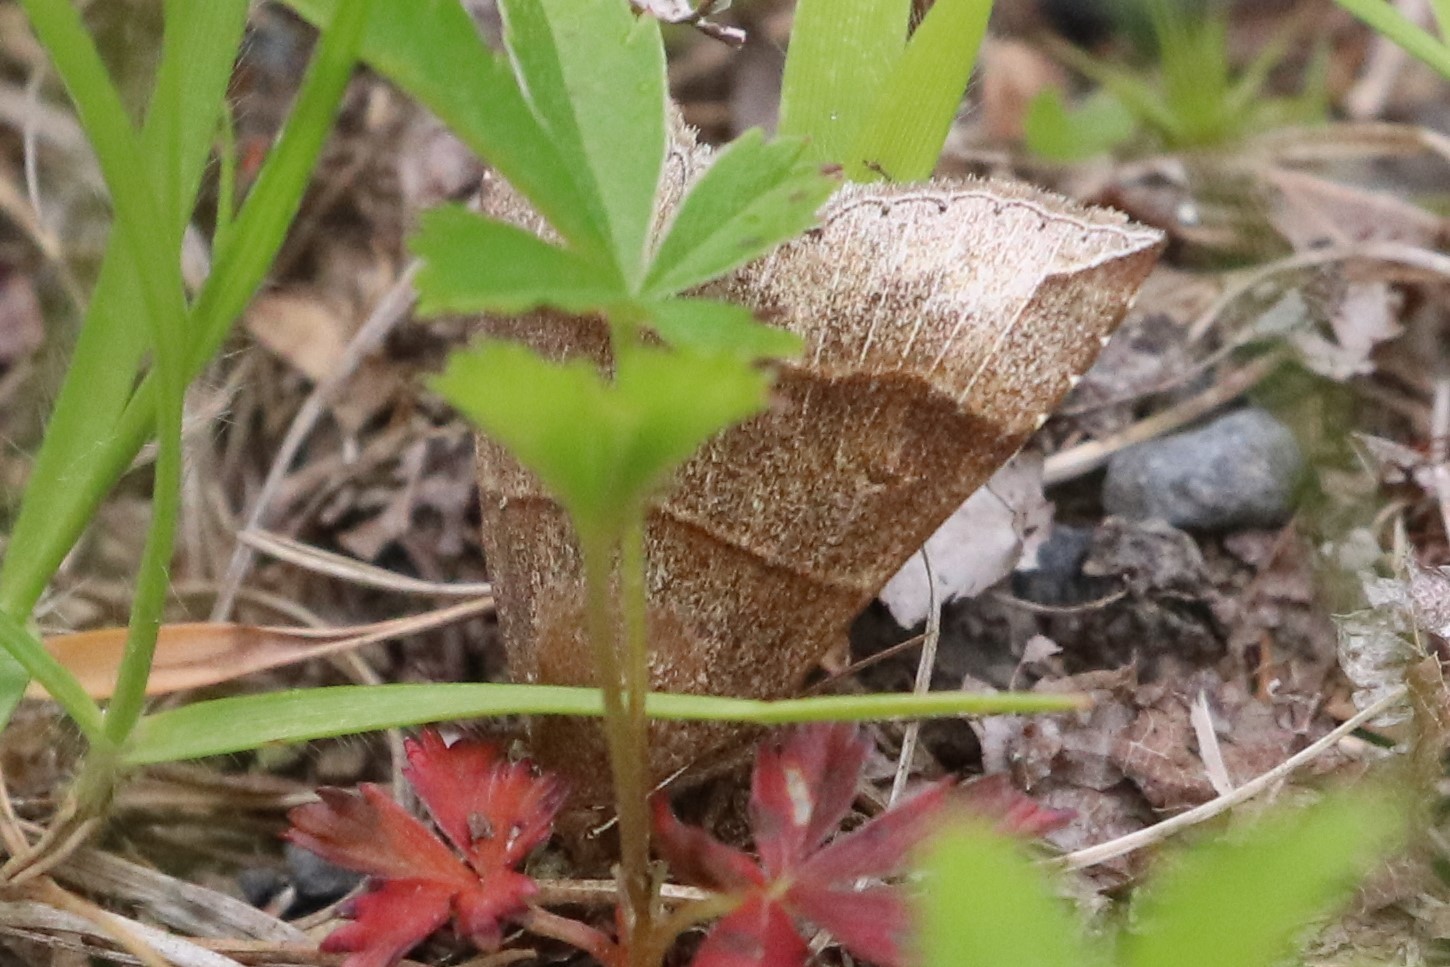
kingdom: Animalia
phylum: Arthropoda
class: Insecta
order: Lepidoptera
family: Erebidae
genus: Parallelia
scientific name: Parallelia bistriaris
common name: Maple looper moth
